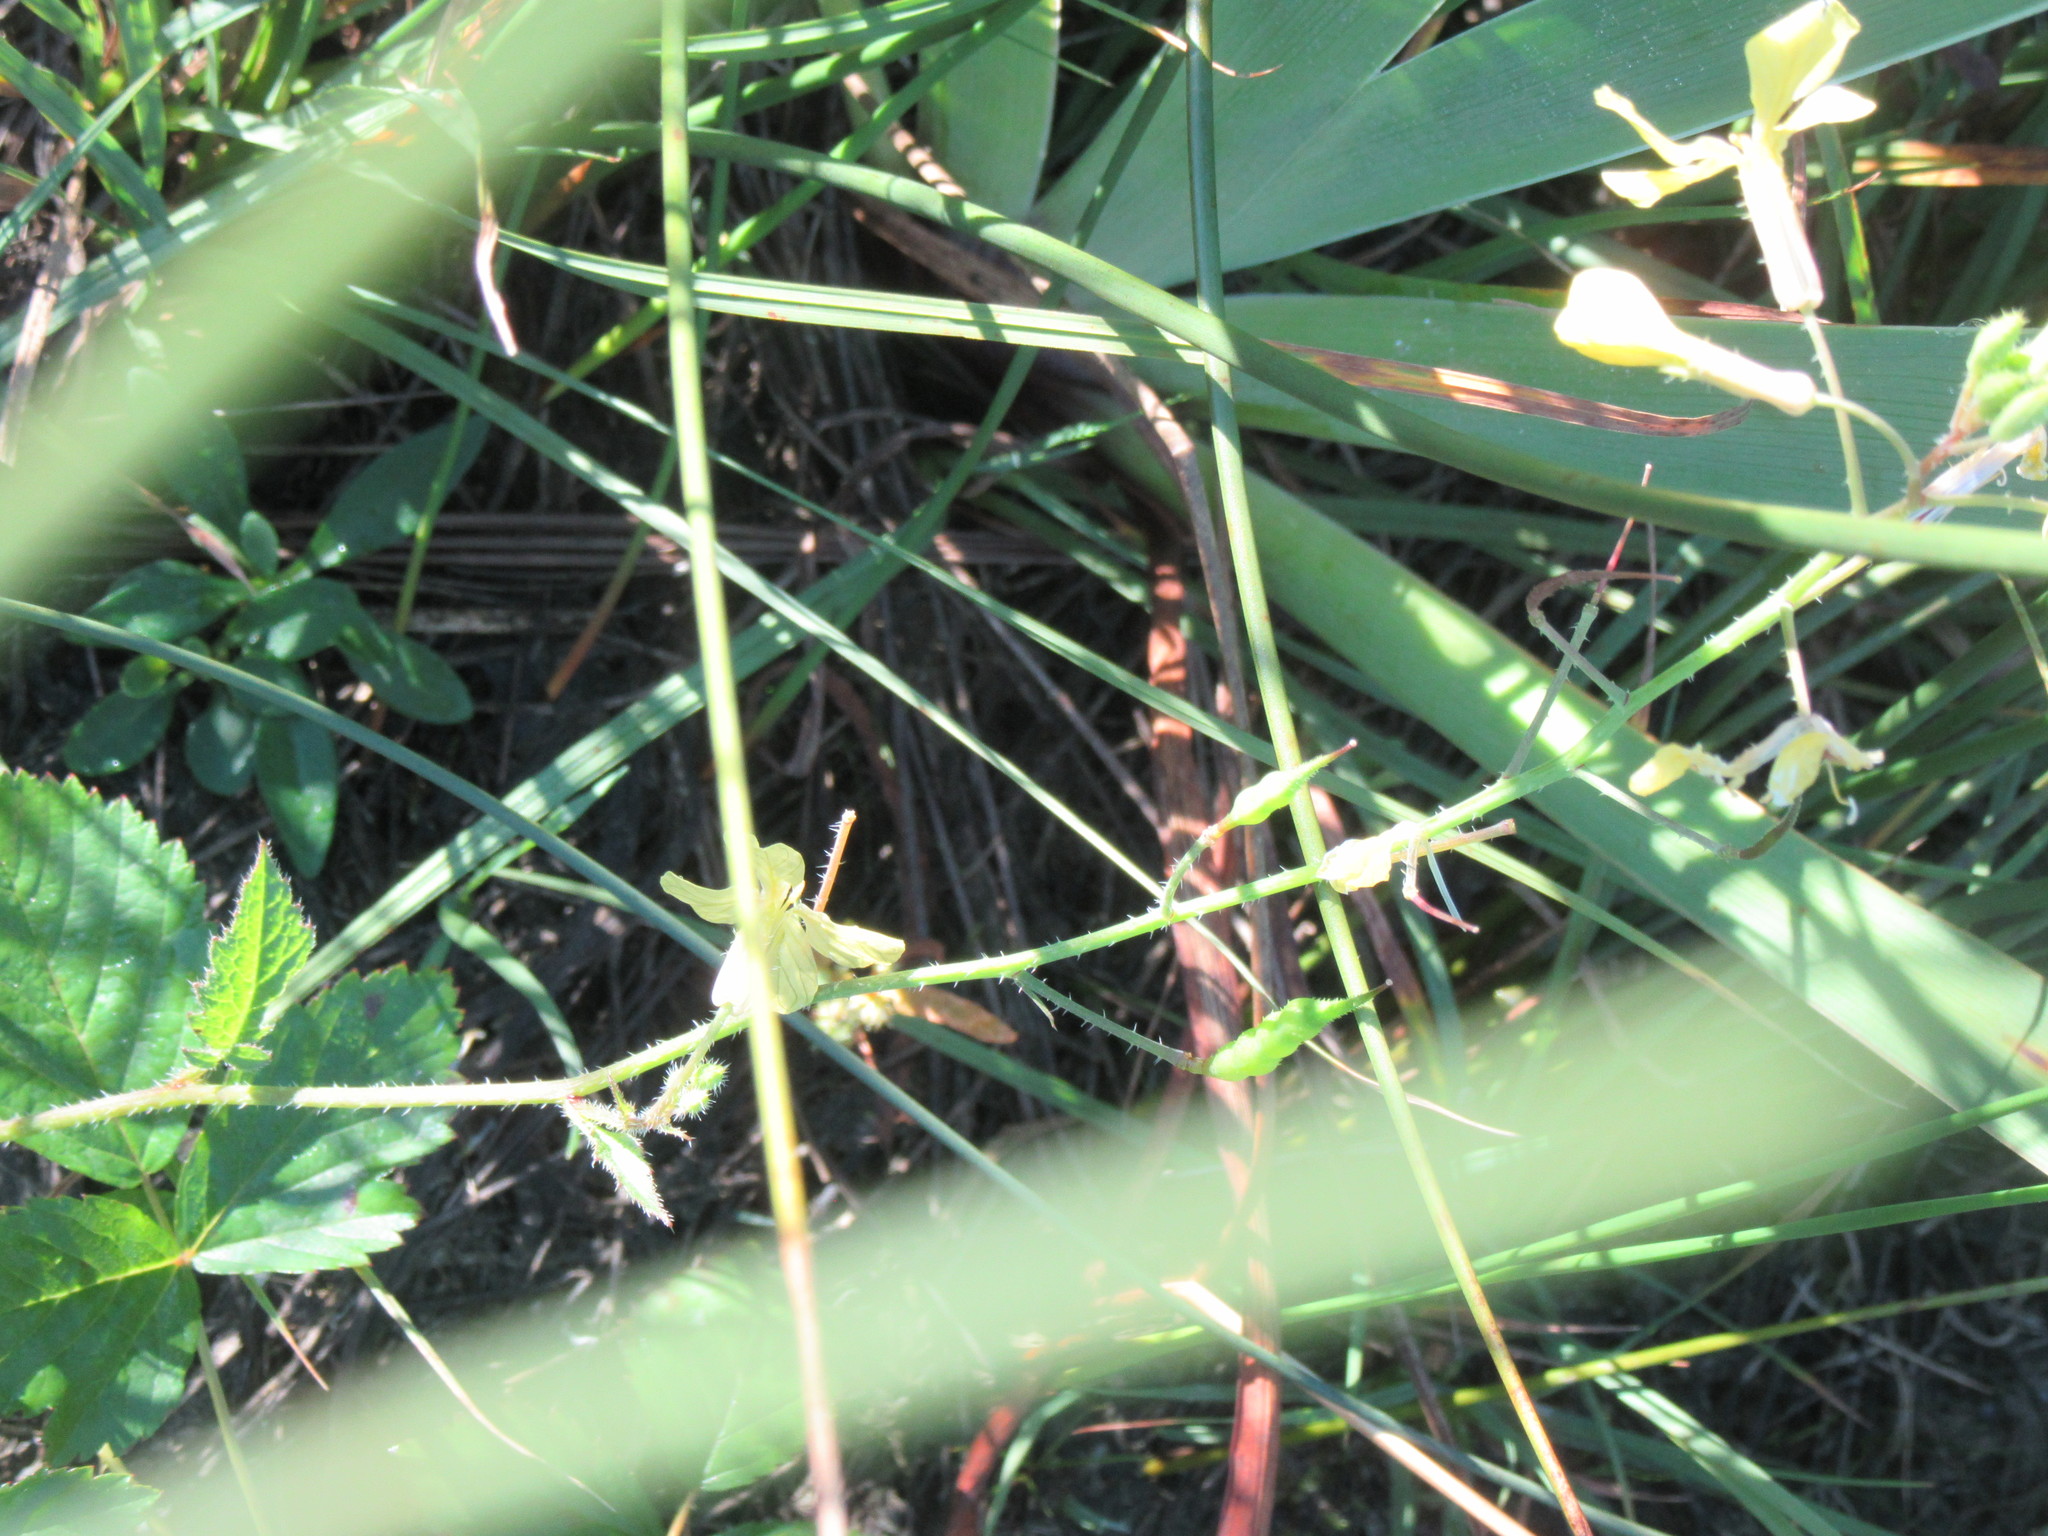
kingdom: Plantae
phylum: Tracheophyta
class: Magnoliopsida
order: Brassicales
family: Brassicaceae
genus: Raphanus
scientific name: Raphanus raphanistrum
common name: Wild radish
